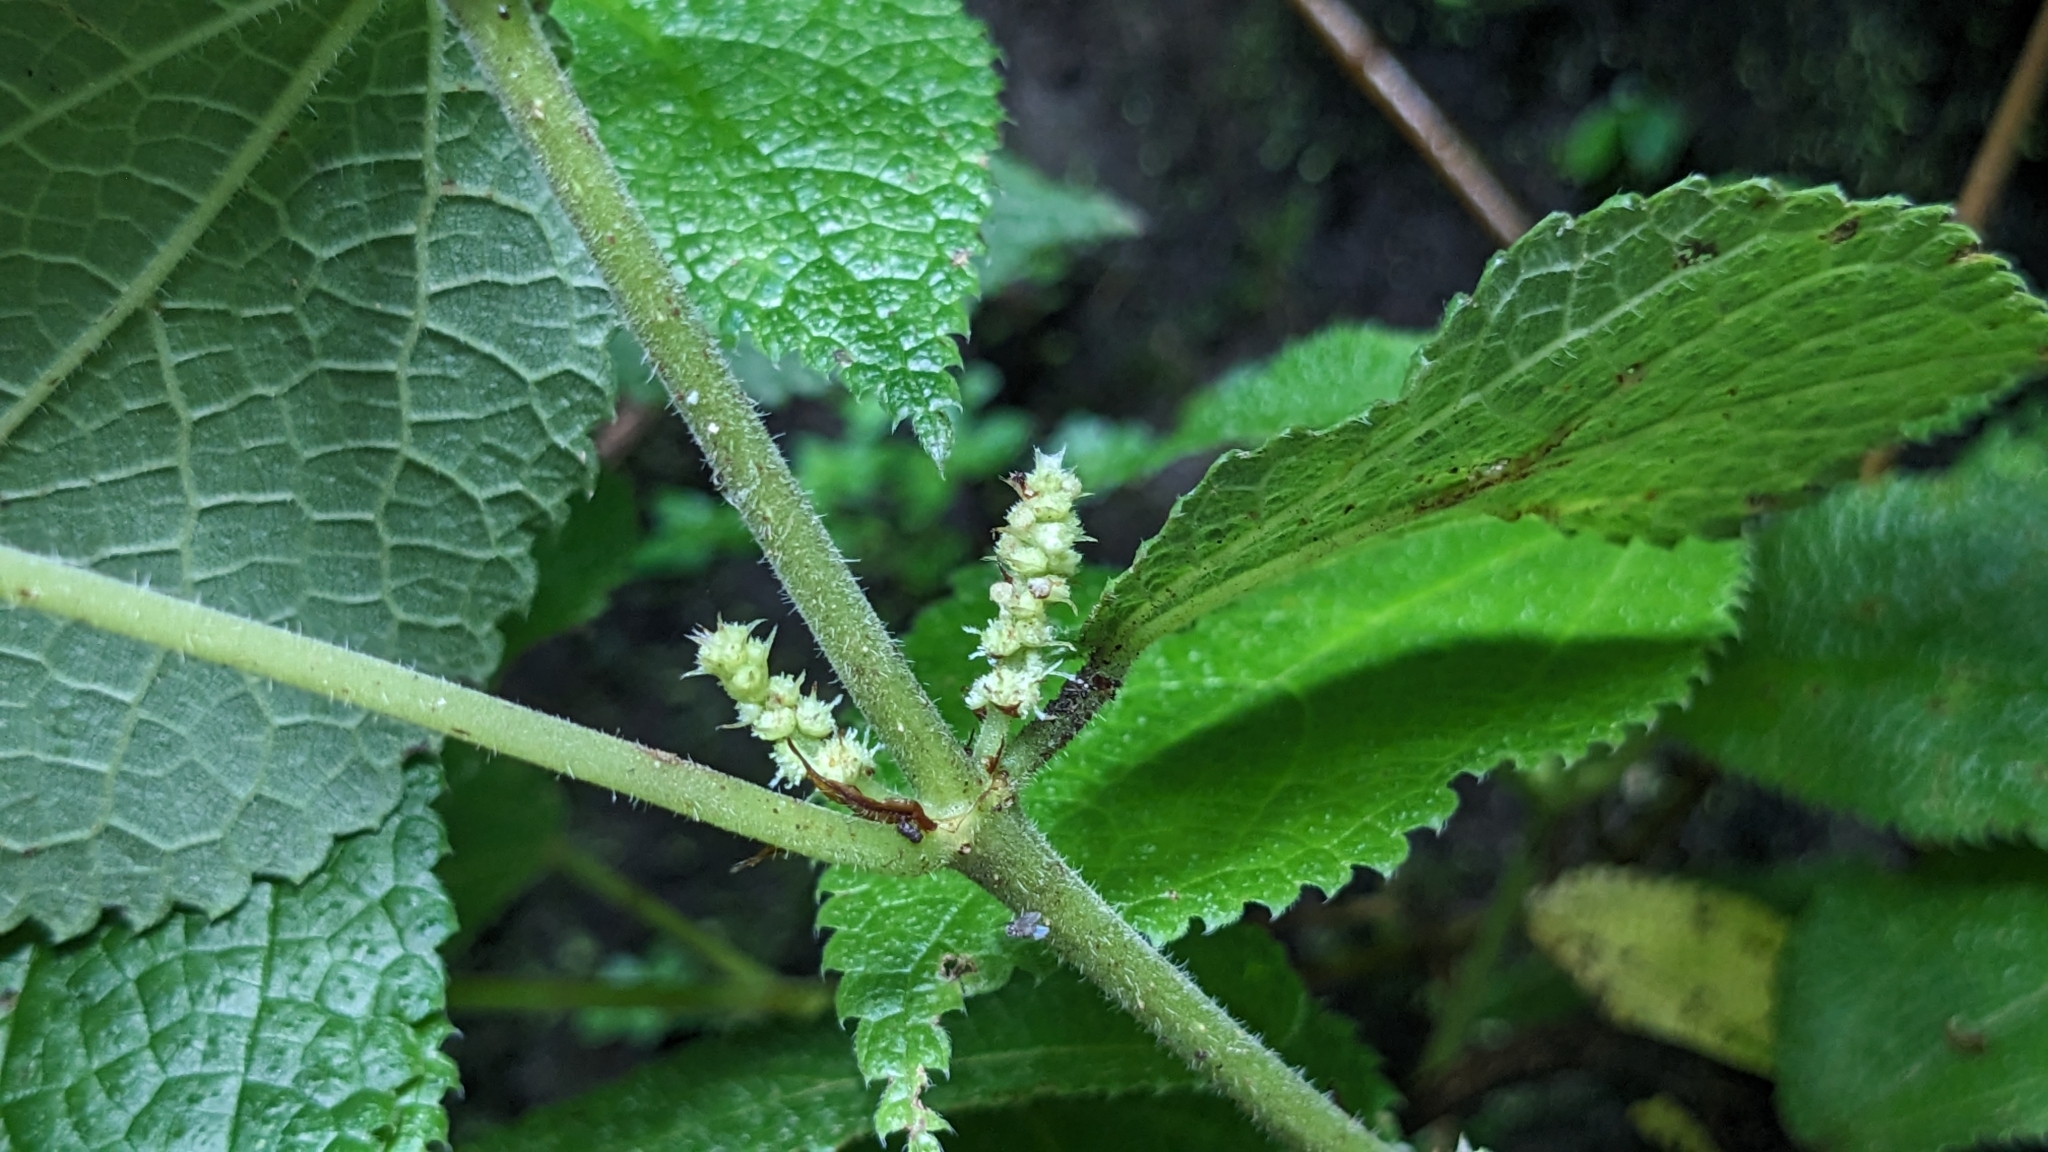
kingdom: Plantae
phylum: Tracheophyta
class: Magnoliopsida
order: Rosales
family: Urticaceae
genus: Boehmeria
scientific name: Boehmeria pilosiuscula
